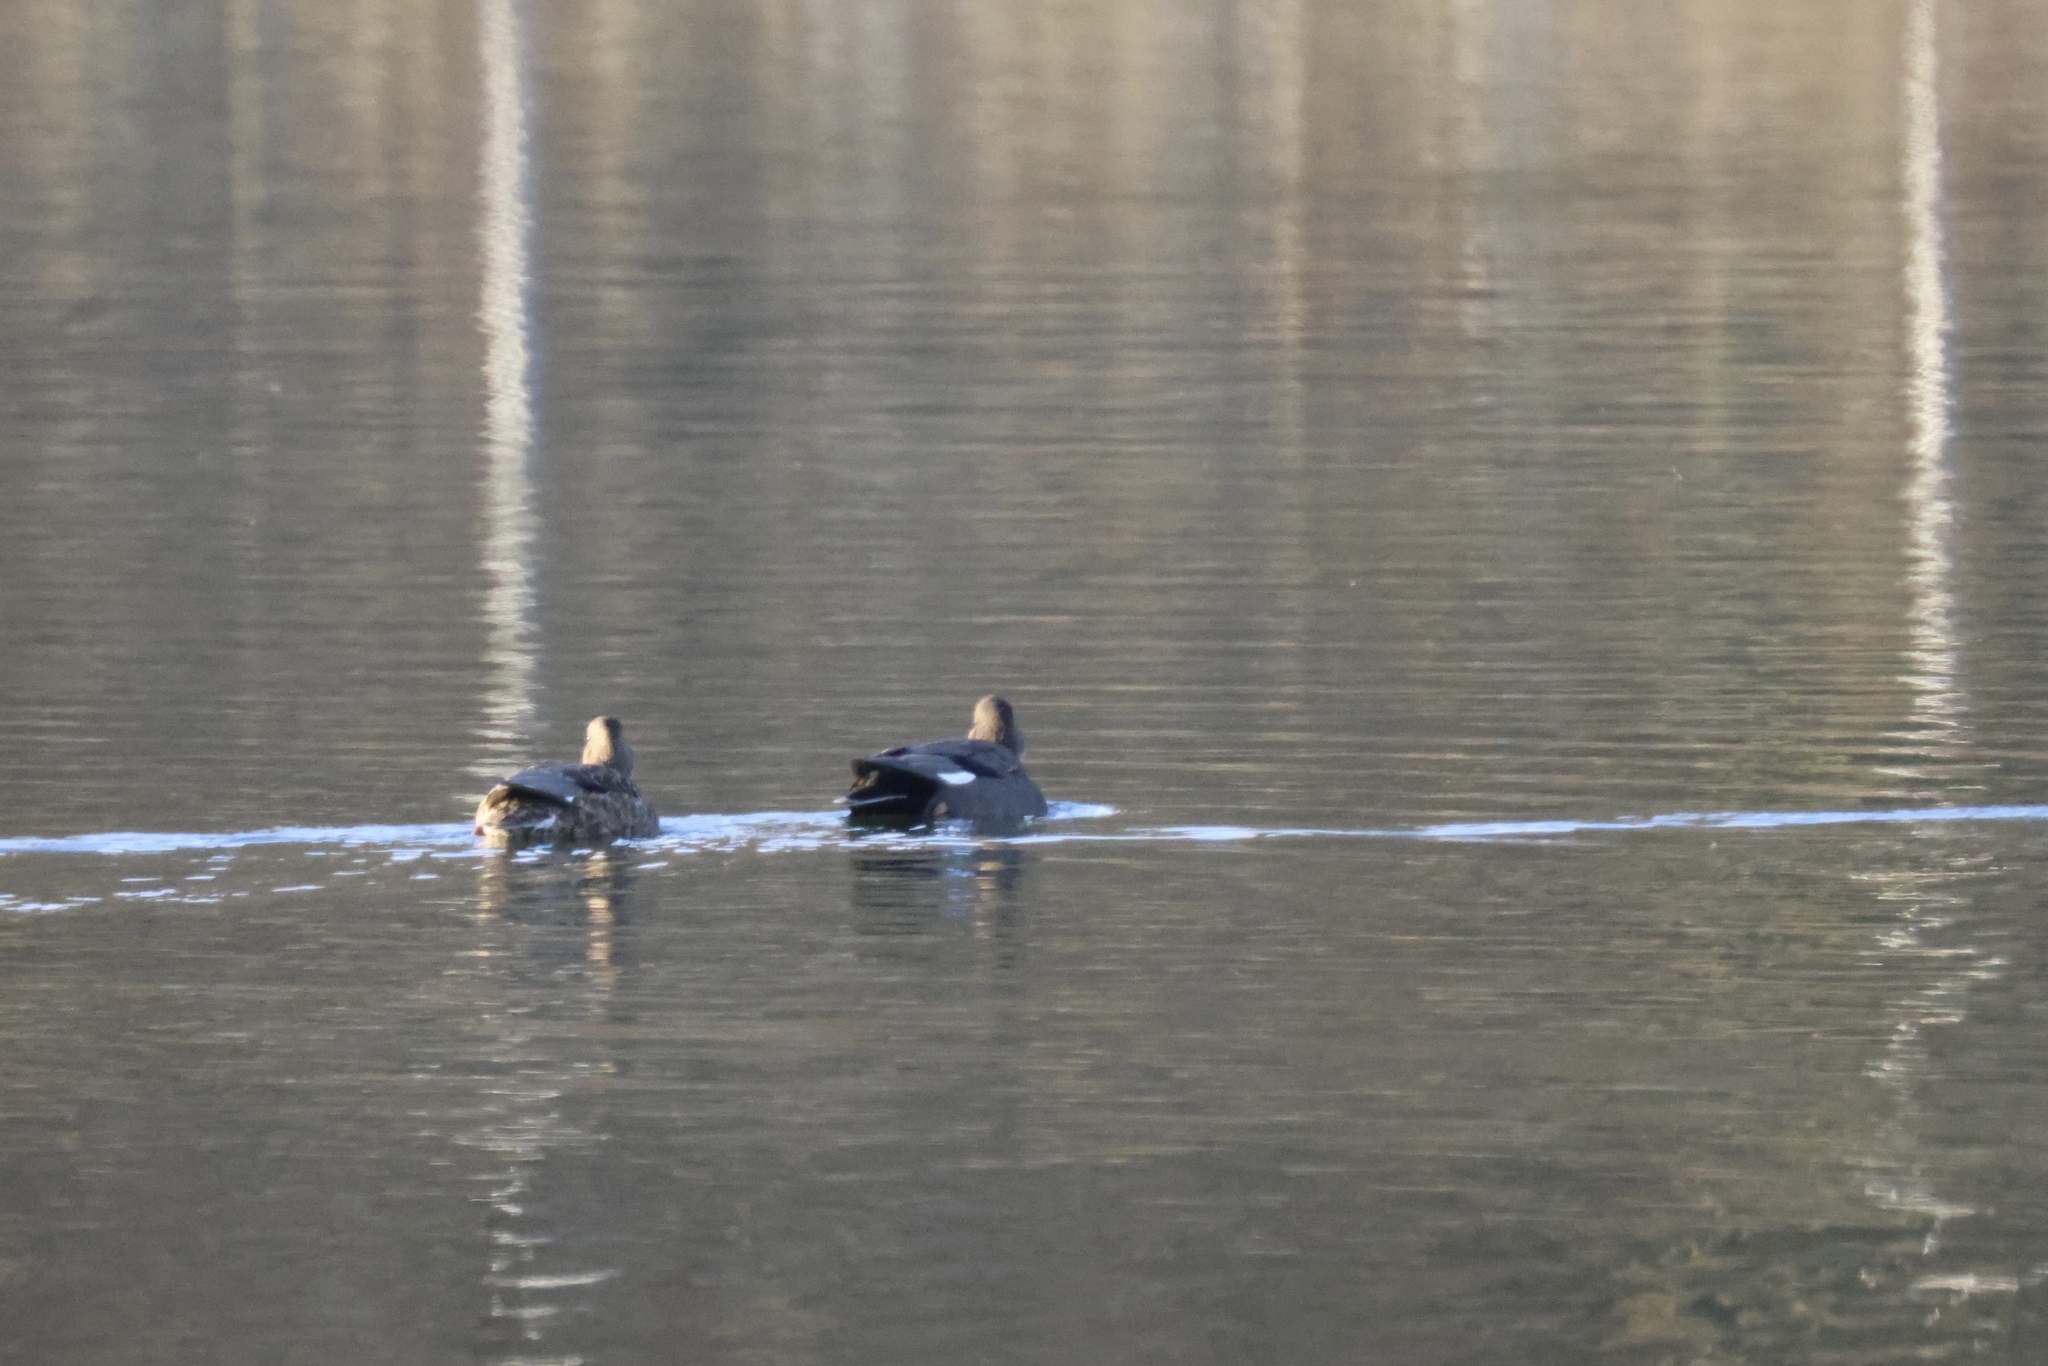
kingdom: Animalia
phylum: Chordata
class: Aves
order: Anseriformes
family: Anatidae
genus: Mareca
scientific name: Mareca strepera
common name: Gadwall
